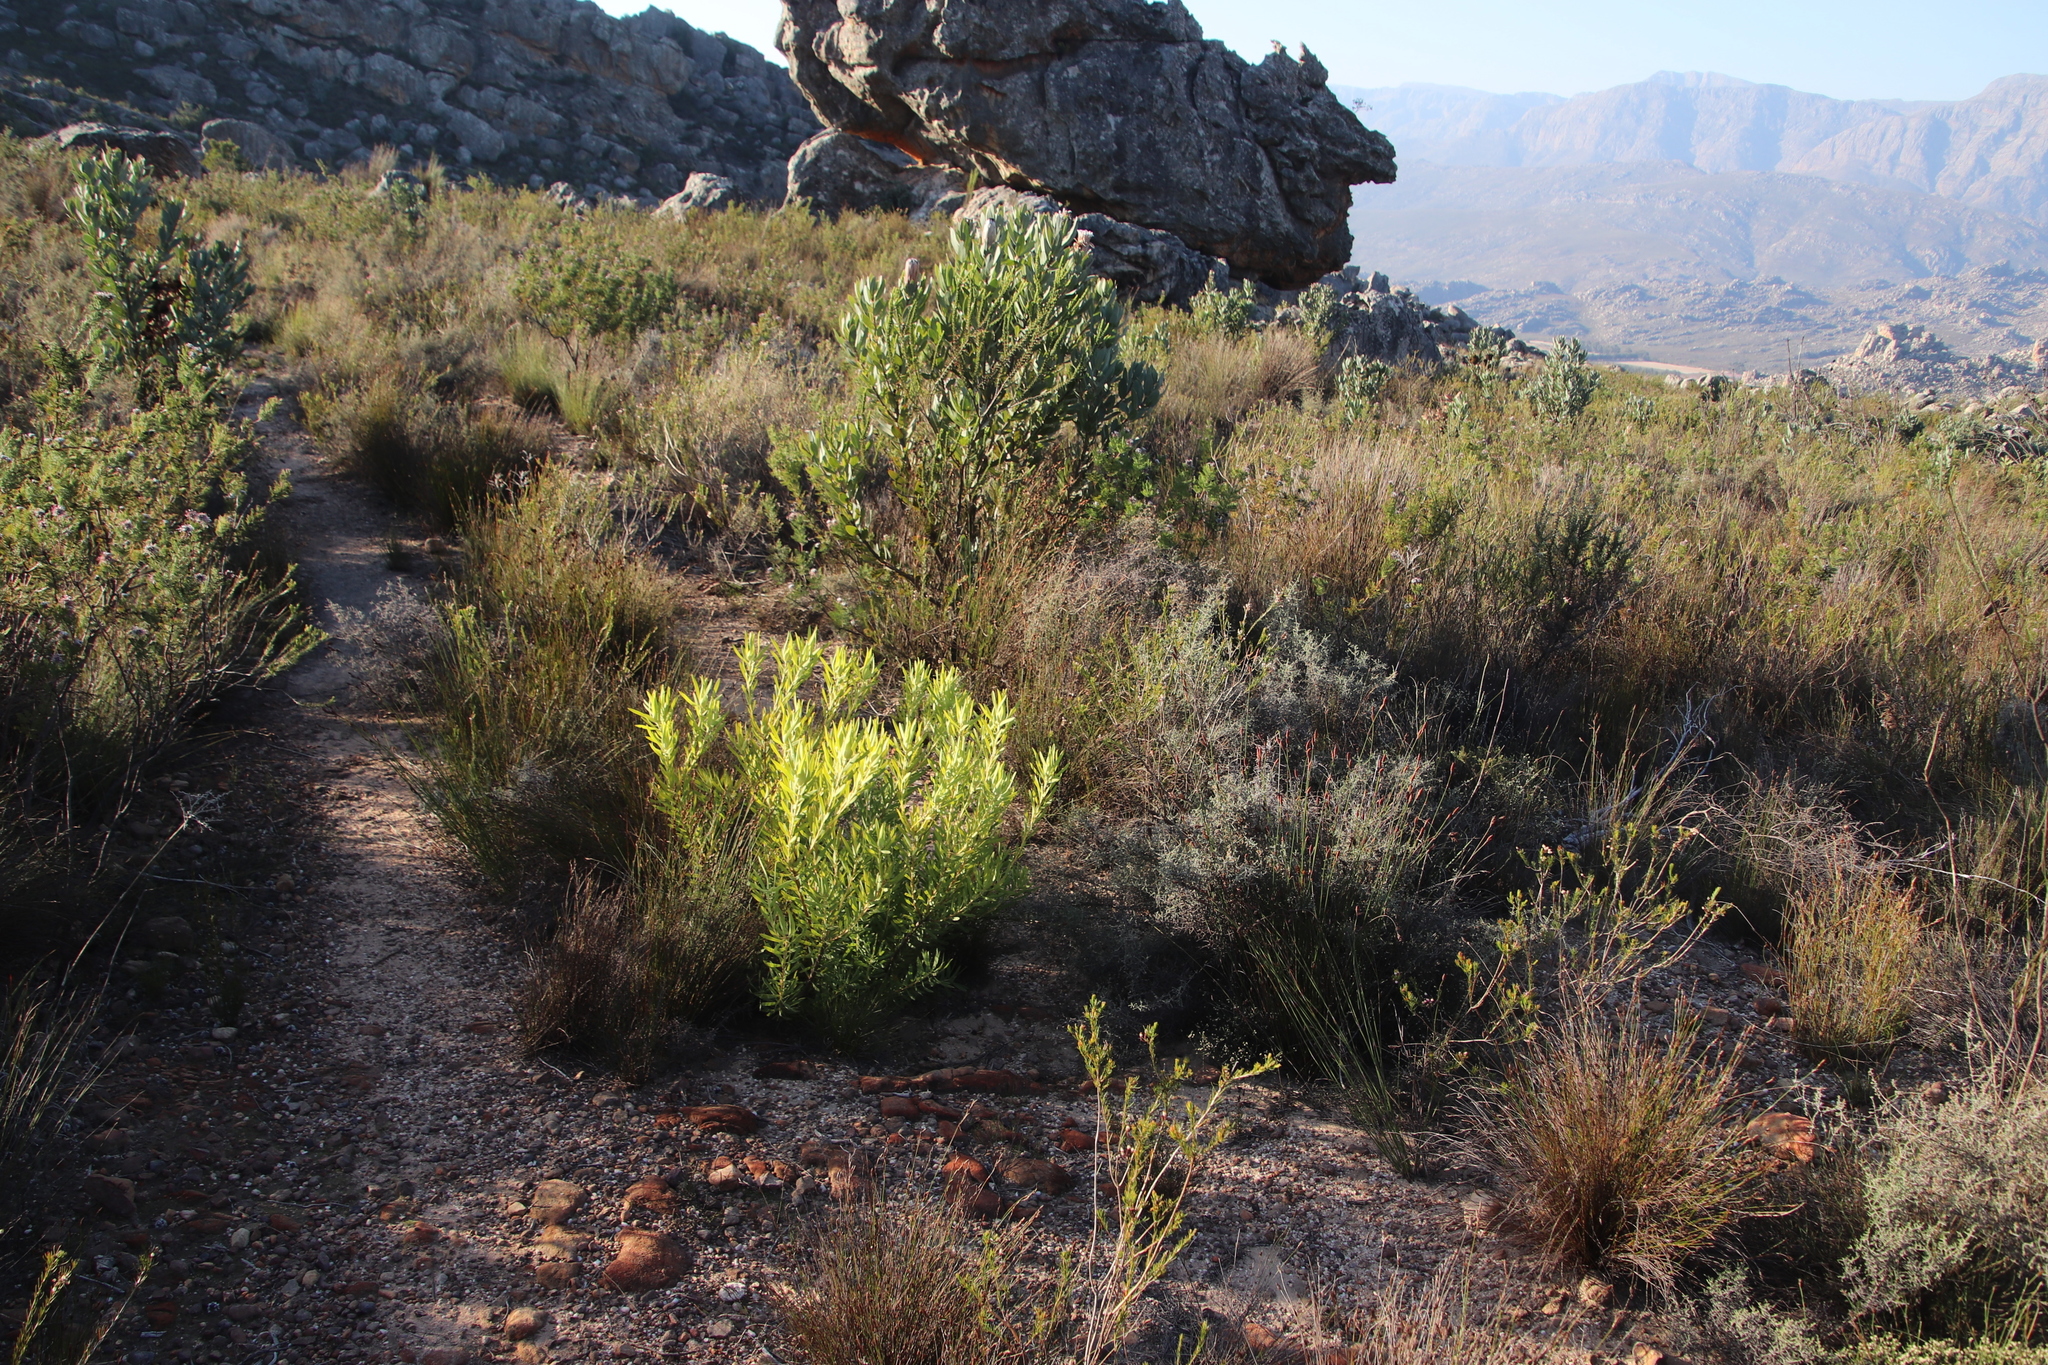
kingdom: Plantae
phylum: Tracheophyta
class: Magnoliopsida
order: Proteales
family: Proteaceae
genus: Leucadendron
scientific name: Leucadendron salignum
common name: Common sunshine conebush
